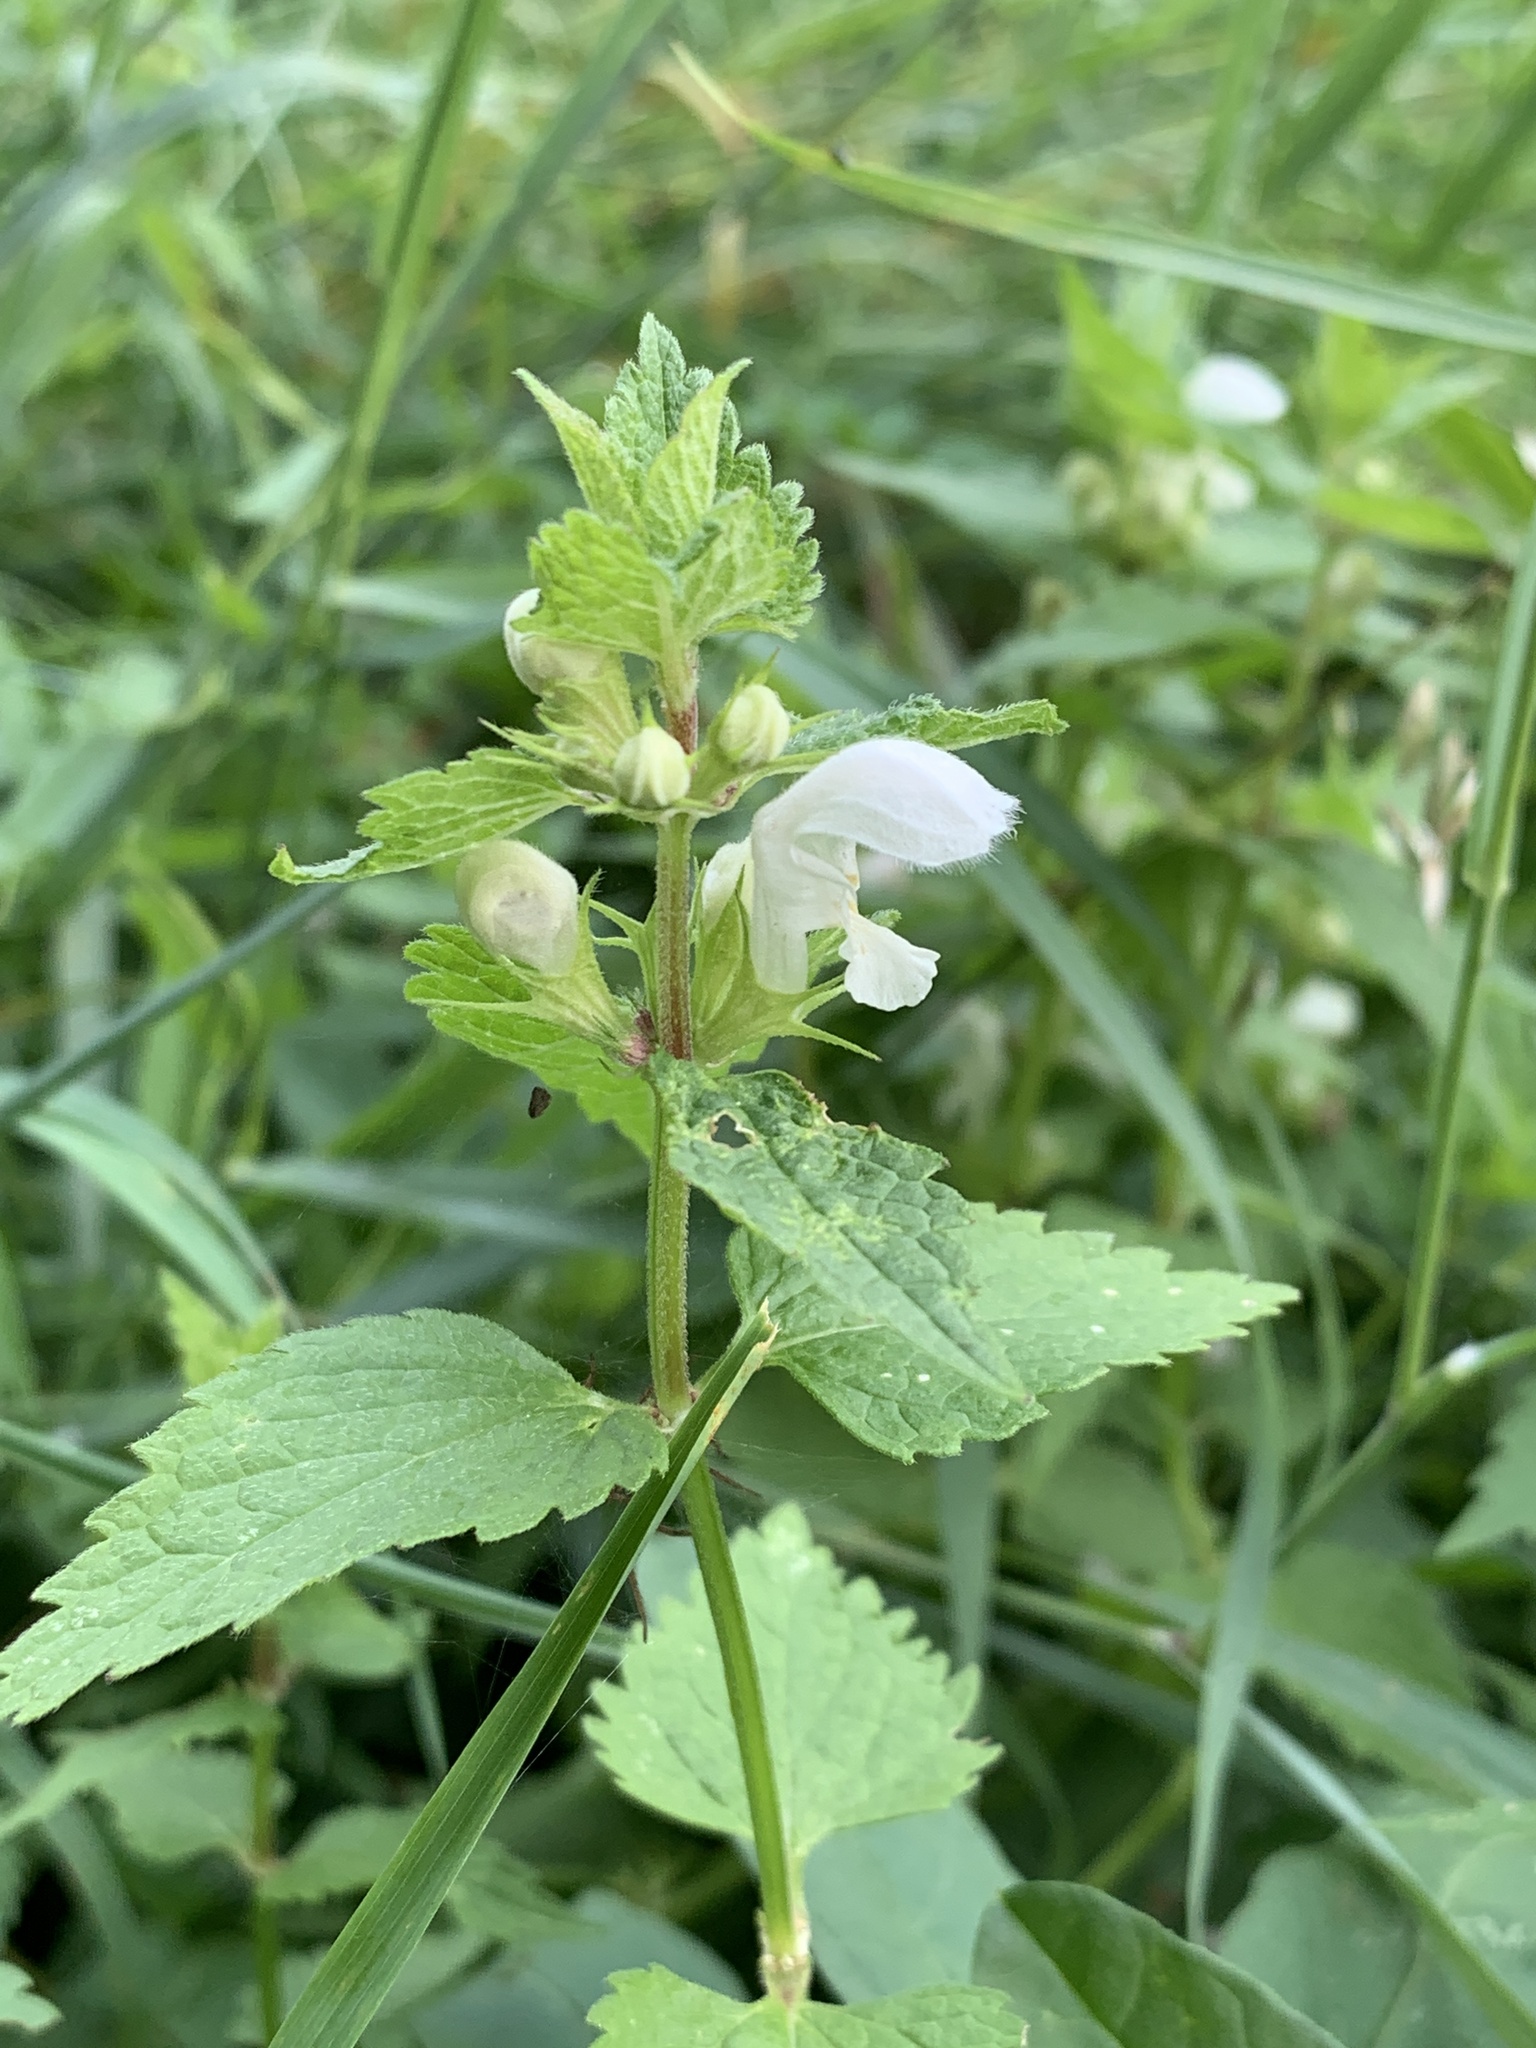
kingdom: Plantae
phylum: Tracheophyta
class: Magnoliopsida
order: Lamiales
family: Lamiaceae
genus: Lamium
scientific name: Lamium album
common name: White dead-nettle
